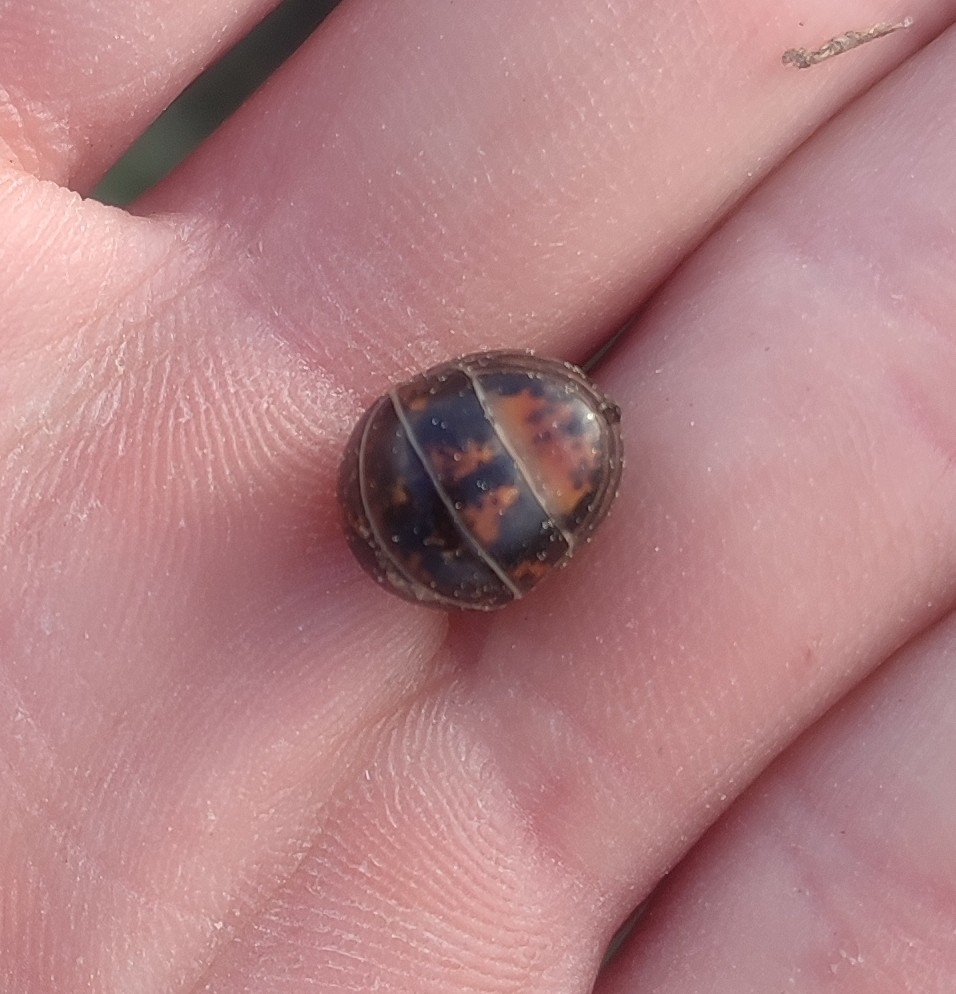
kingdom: Animalia
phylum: Arthropoda
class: Diplopoda
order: Glomerida
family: Glomeridae
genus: Glomeris
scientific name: Glomeris ligurica
